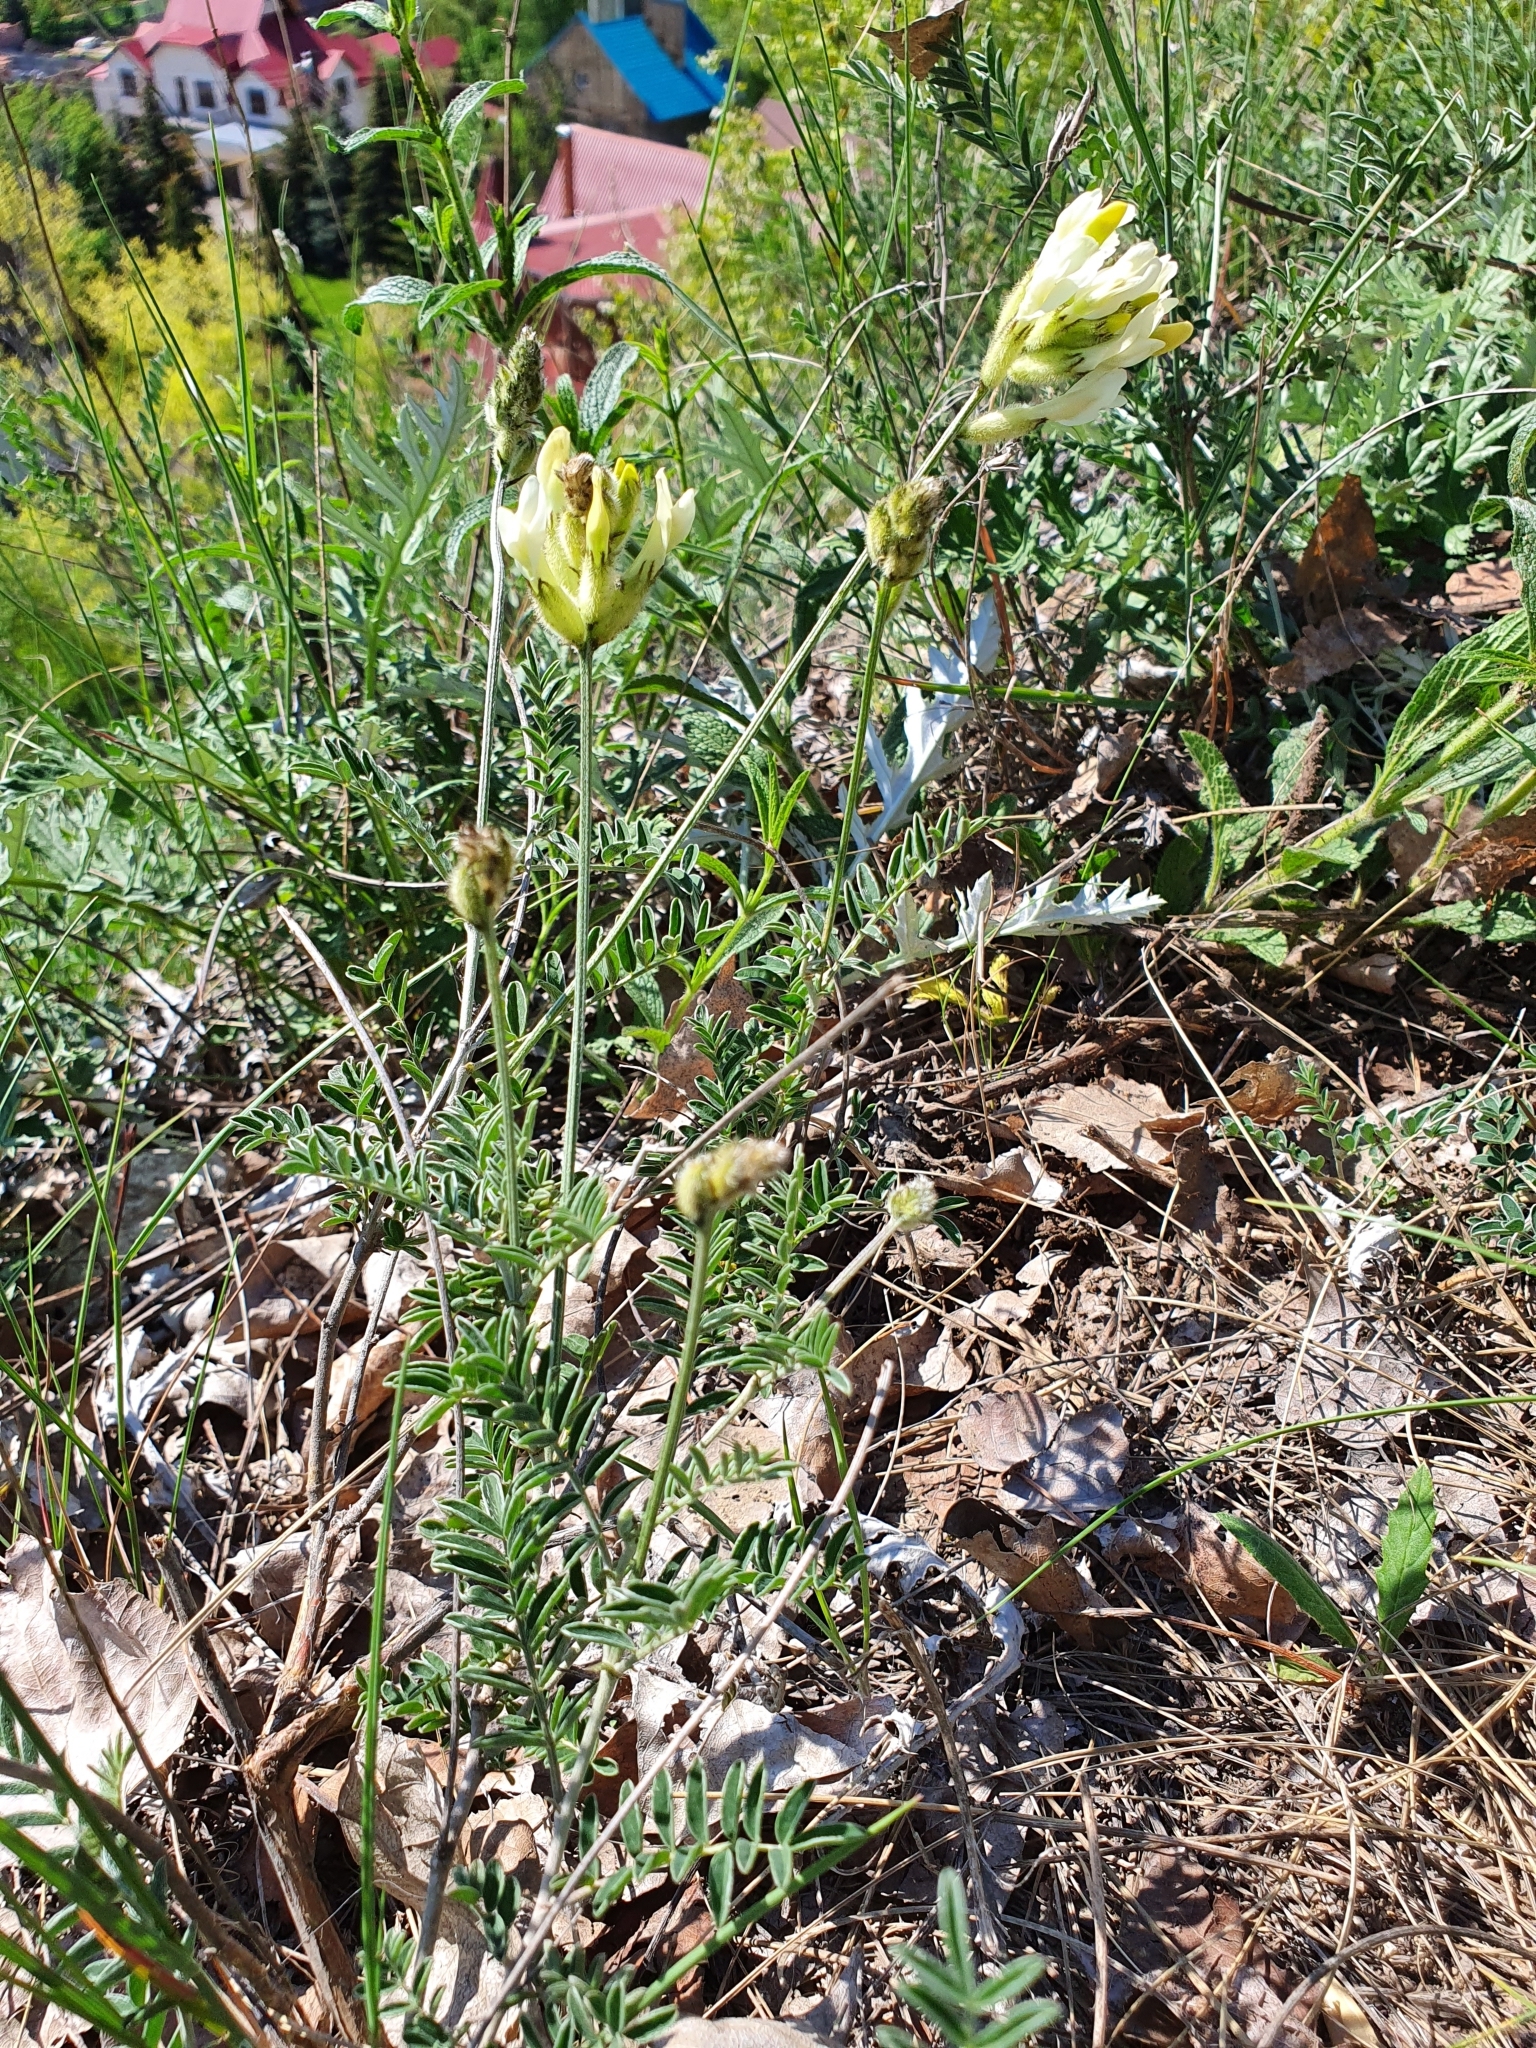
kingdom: Plantae
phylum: Tracheophyta
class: Magnoliopsida
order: Fabales
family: Fabaceae
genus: Astragalus
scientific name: Astragalus zingeri
